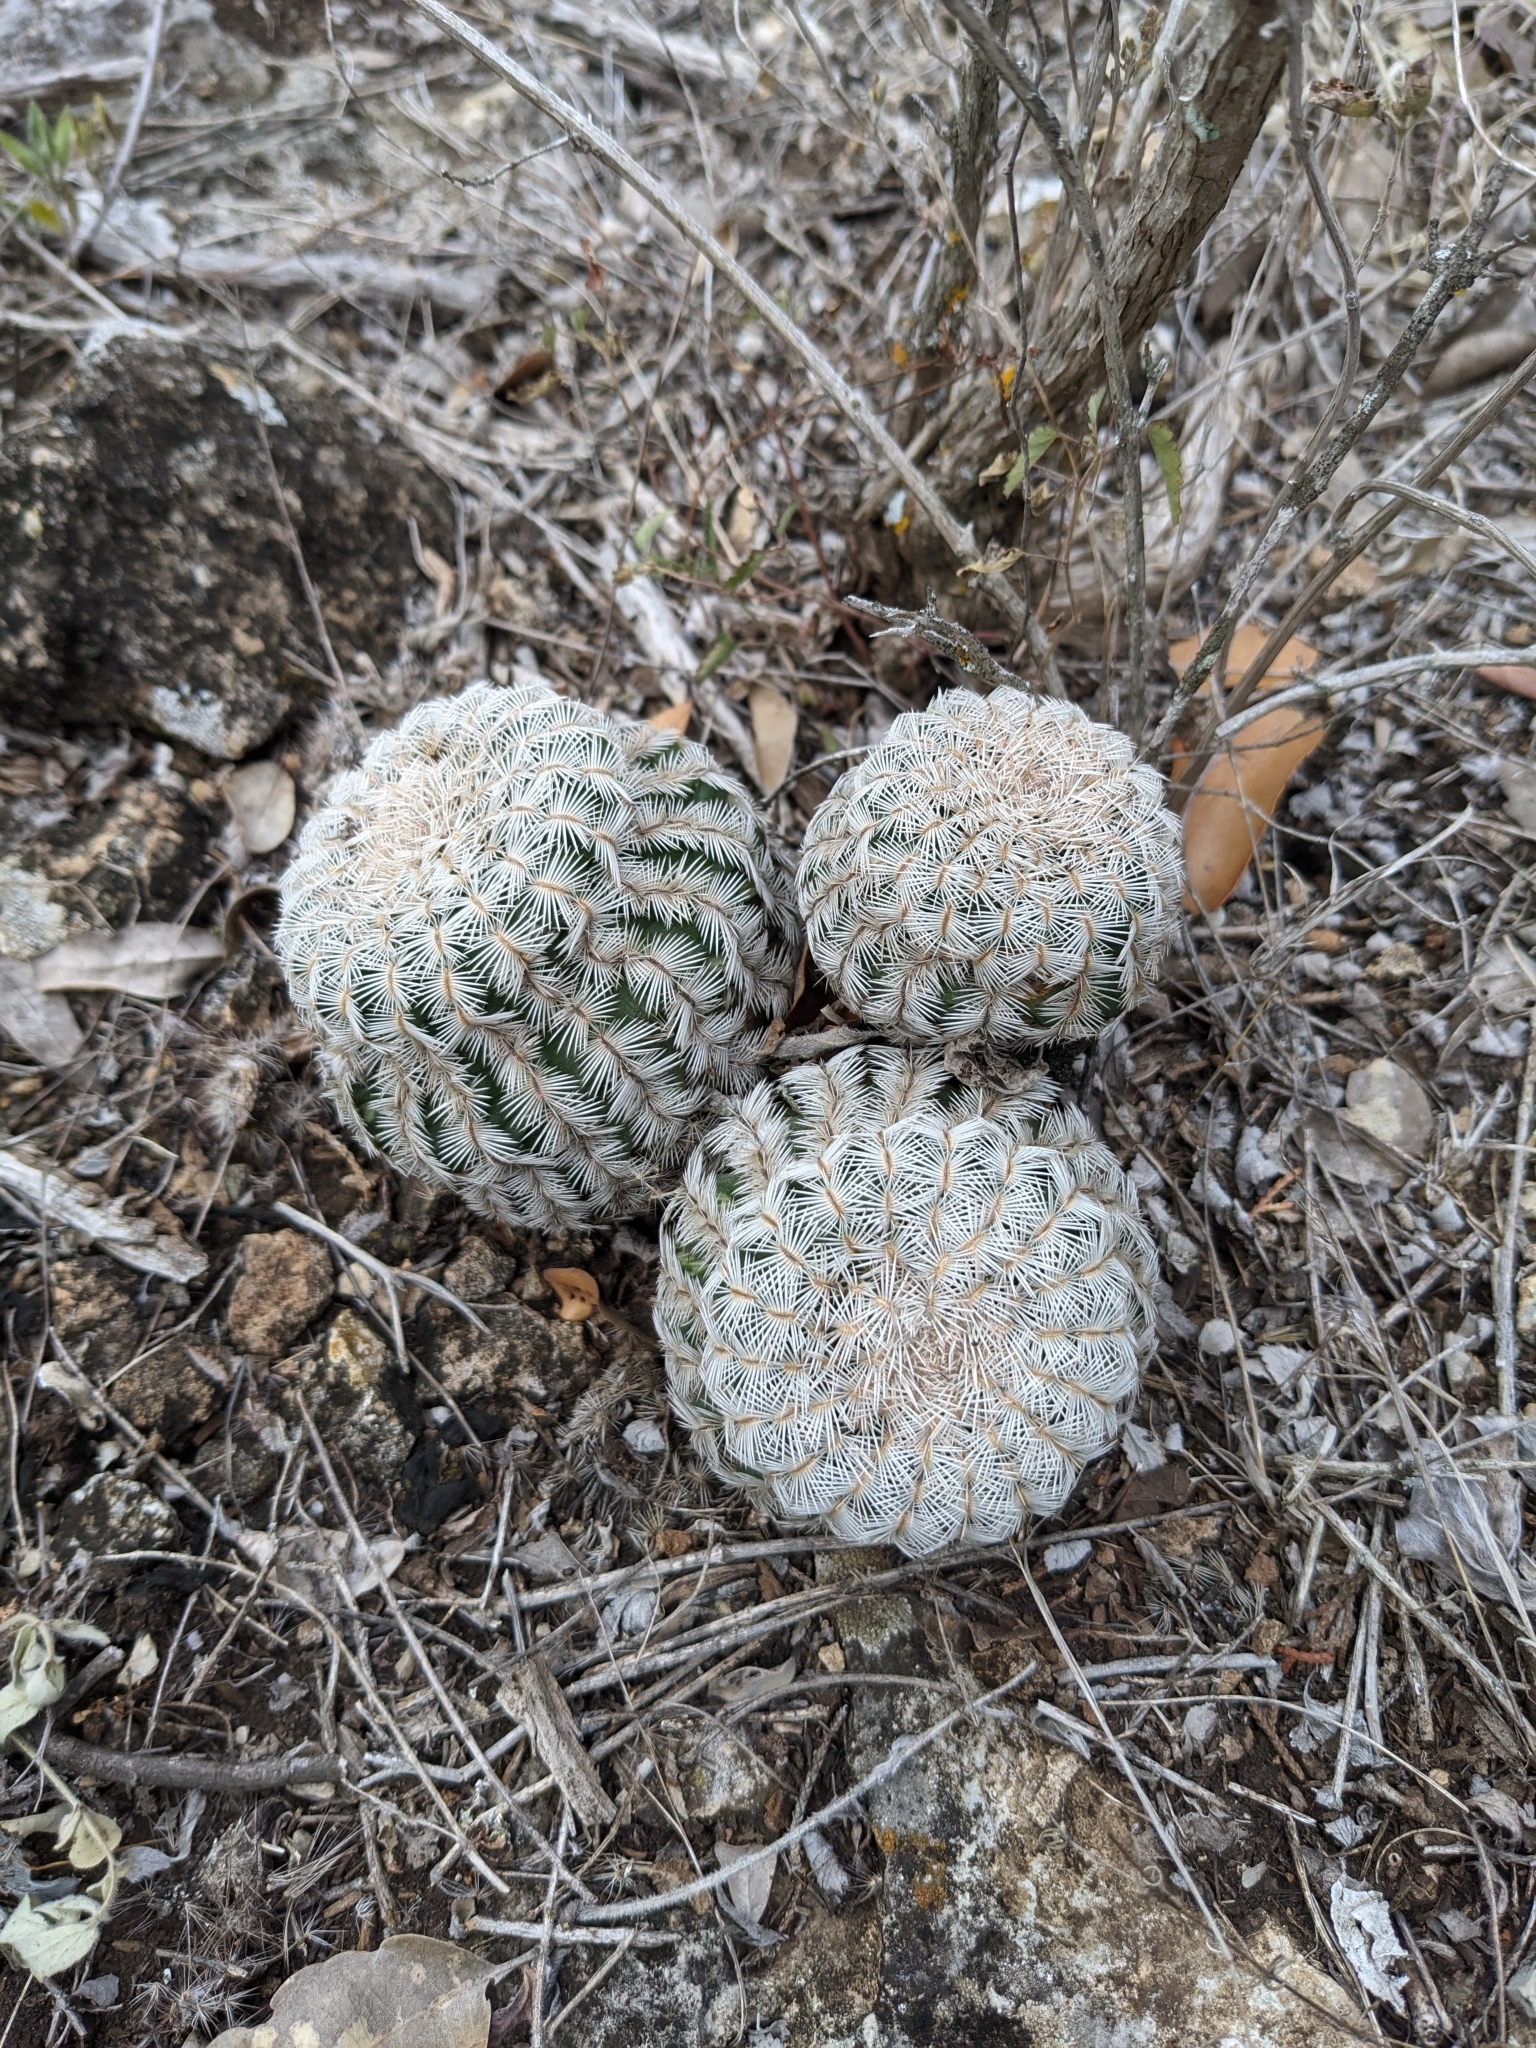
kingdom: Plantae
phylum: Tracheophyta
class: Magnoliopsida
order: Caryophyllales
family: Cactaceae
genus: Echinocereus
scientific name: Echinocereus reichenbachii
